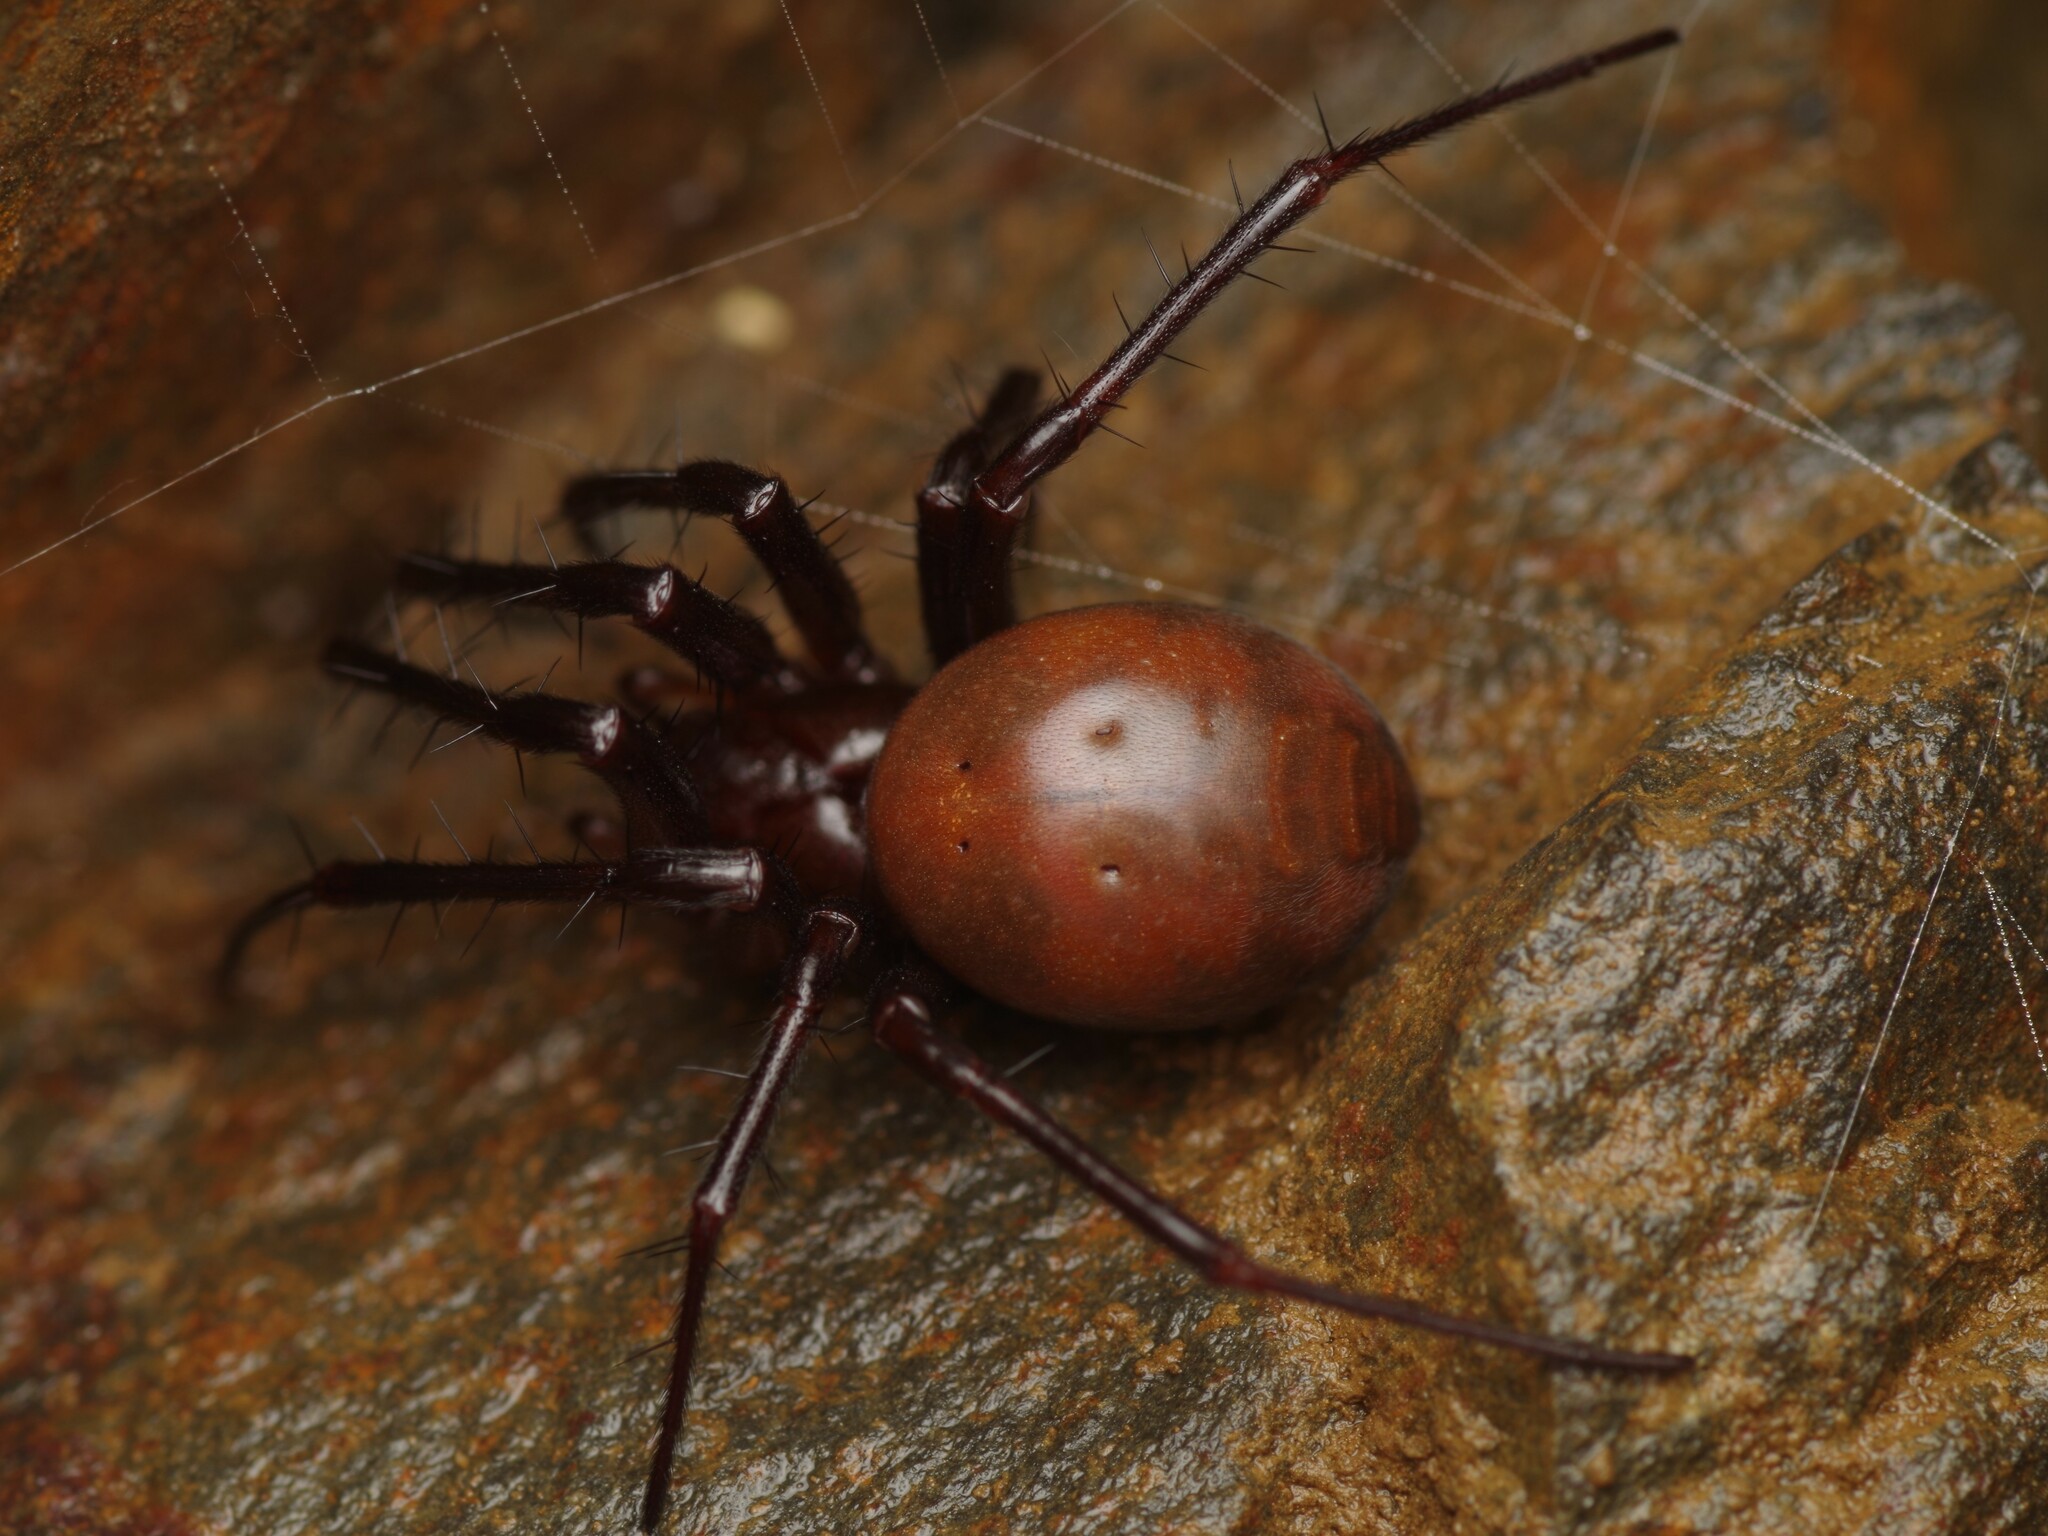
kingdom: Animalia
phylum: Arthropoda
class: Arachnida
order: Araneae
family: Tetragnathidae
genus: Meta
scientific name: Meta bourneti
